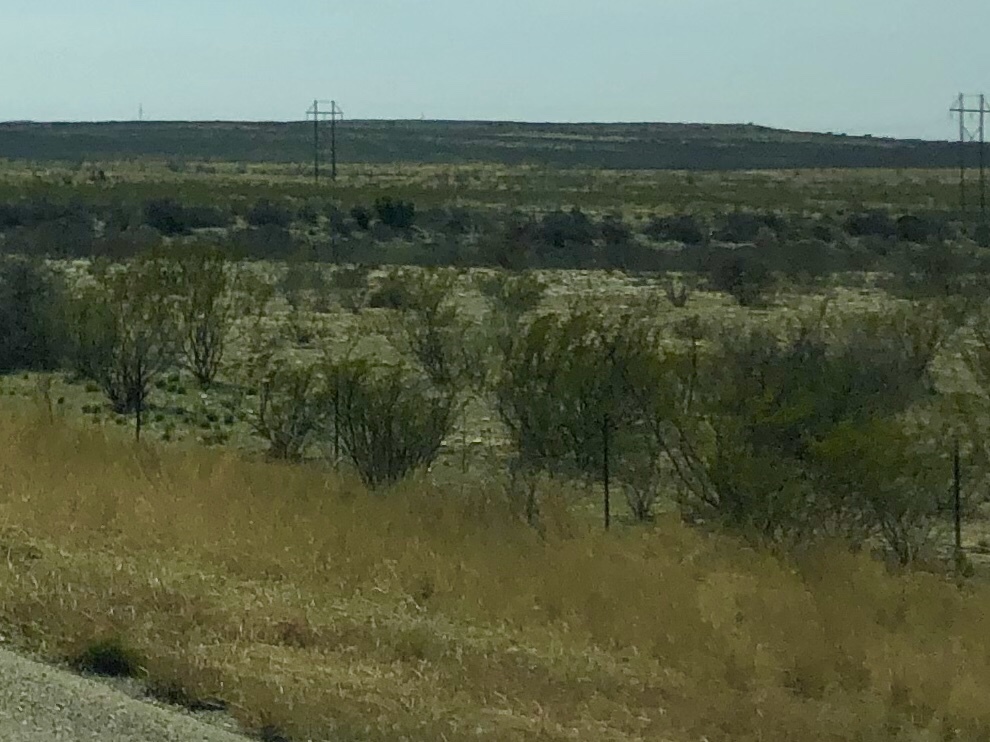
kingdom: Plantae
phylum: Tracheophyta
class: Magnoliopsida
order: Zygophyllales
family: Zygophyllaceae
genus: Larrea
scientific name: Larrea tridentata
